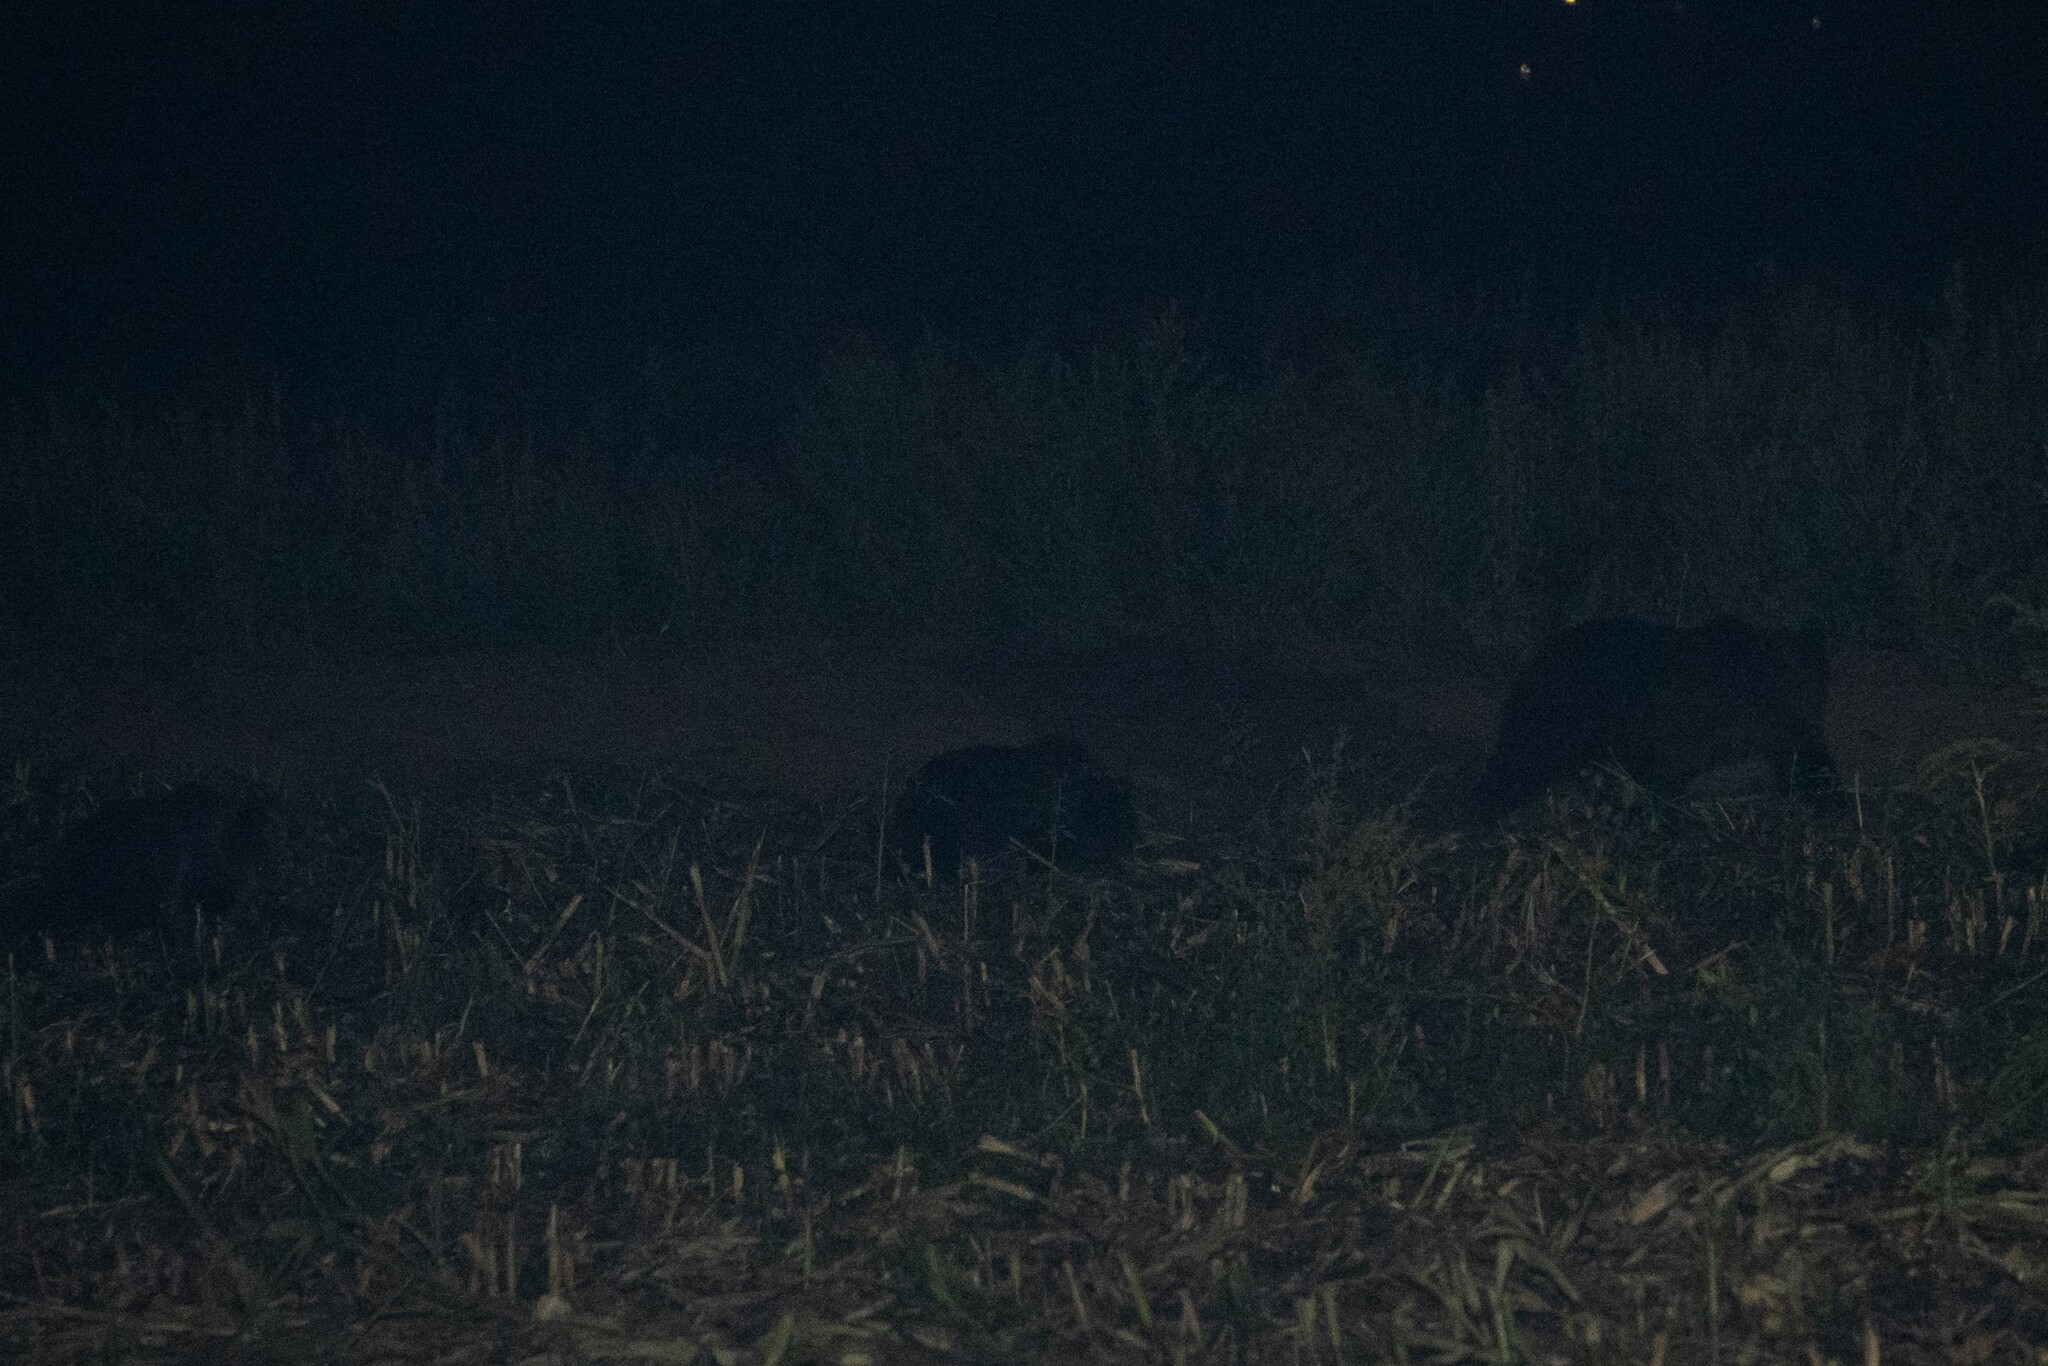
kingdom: Animalia
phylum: Chordata
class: Mammalia
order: Carnivora
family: Ursidae
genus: Ursus
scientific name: Ursus arctos
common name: Brown bear
